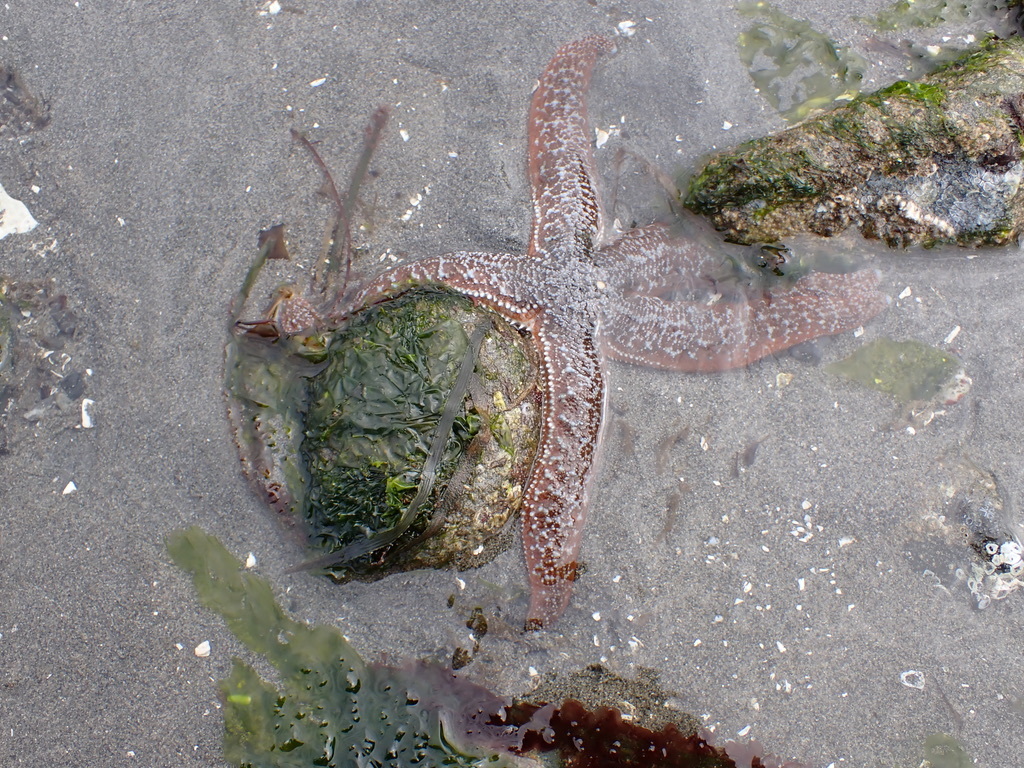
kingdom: Animalia
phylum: Echinodermata
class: Asteroidea
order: Forcipulatida
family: Asteriidae
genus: Evasterias
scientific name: Evasterias troschelii
